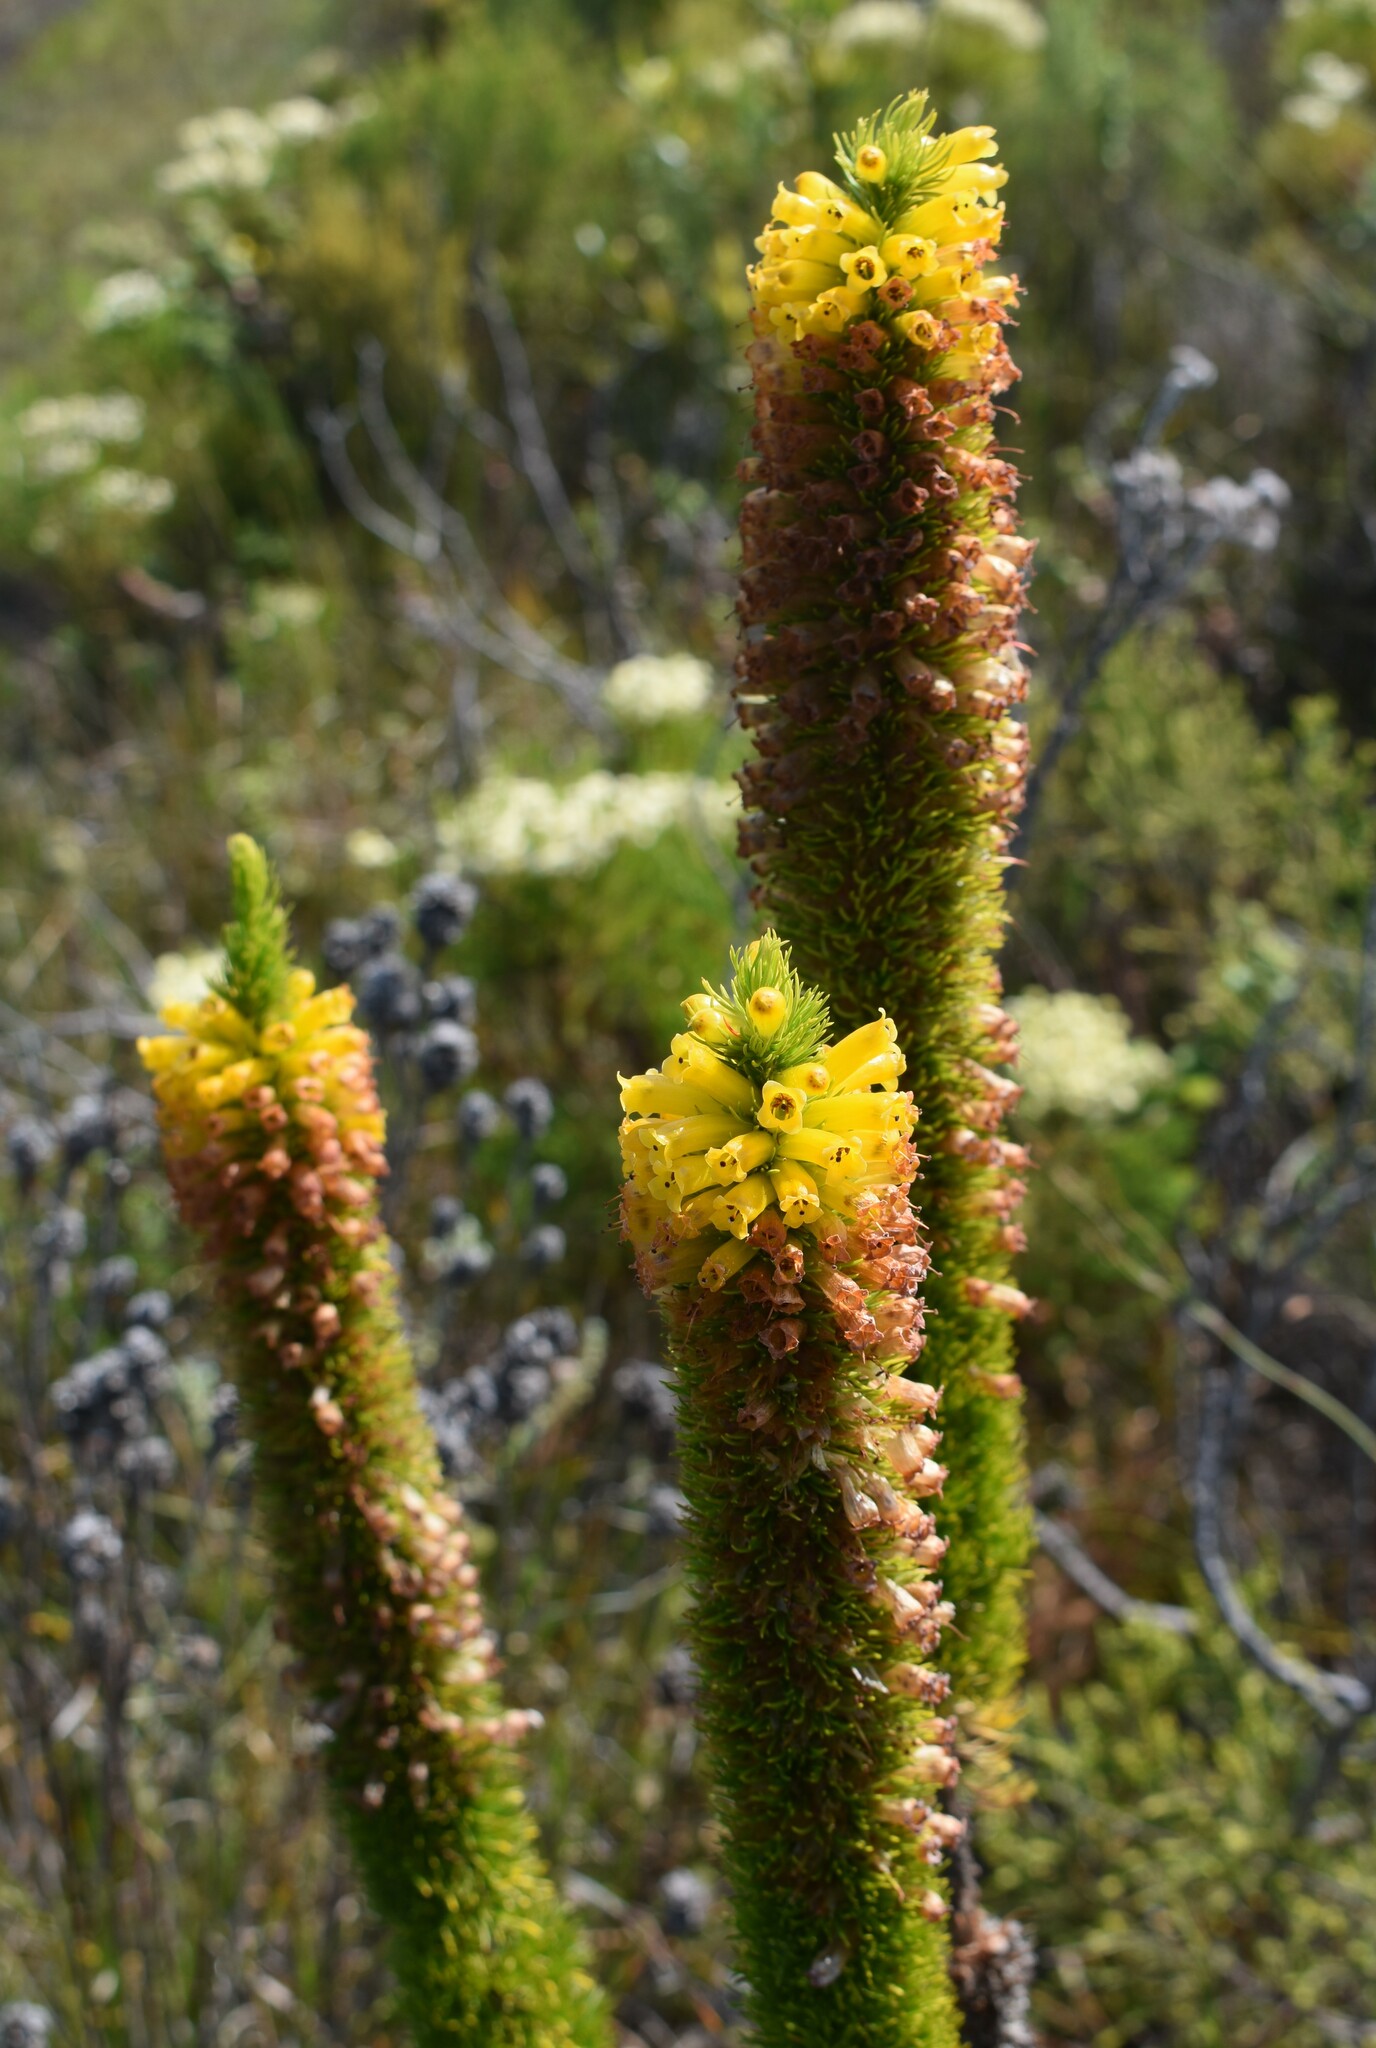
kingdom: Plantae
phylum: Tracheophyta
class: Magnoliopsida
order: Ericales
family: Ericaceae
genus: Erica
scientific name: Erica patersonia
